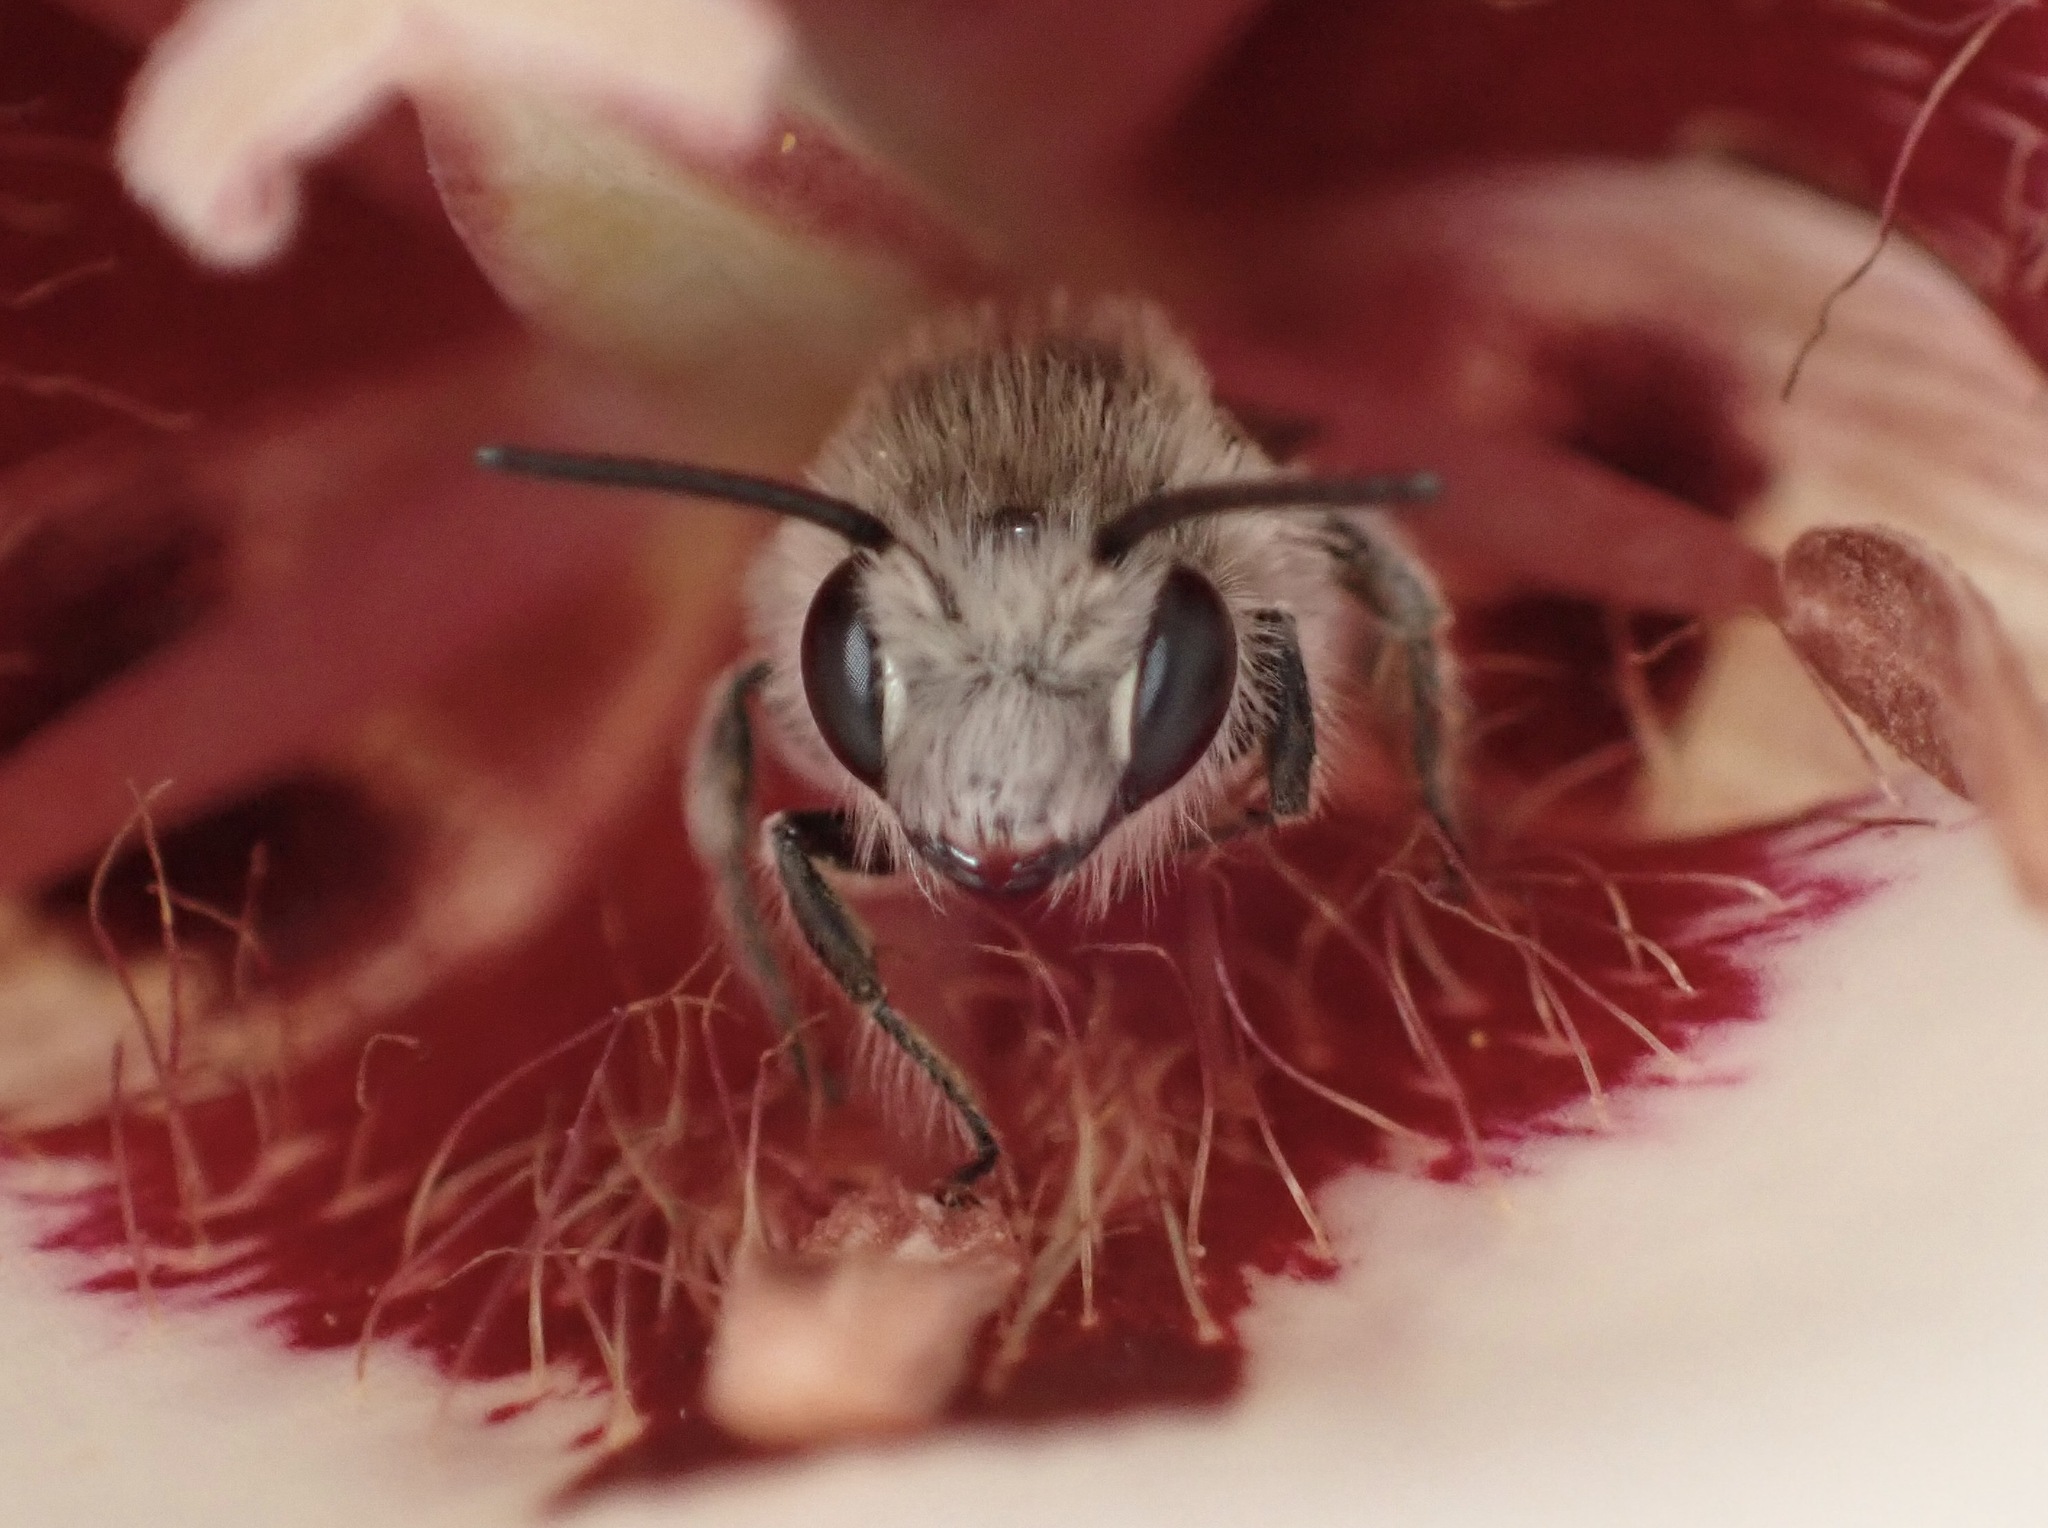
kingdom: Animalia
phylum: Arthropoda
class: Insecta
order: Hymenoptera
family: Andrenidae
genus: Ancylandrena
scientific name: Ancylandrena atoposoma
